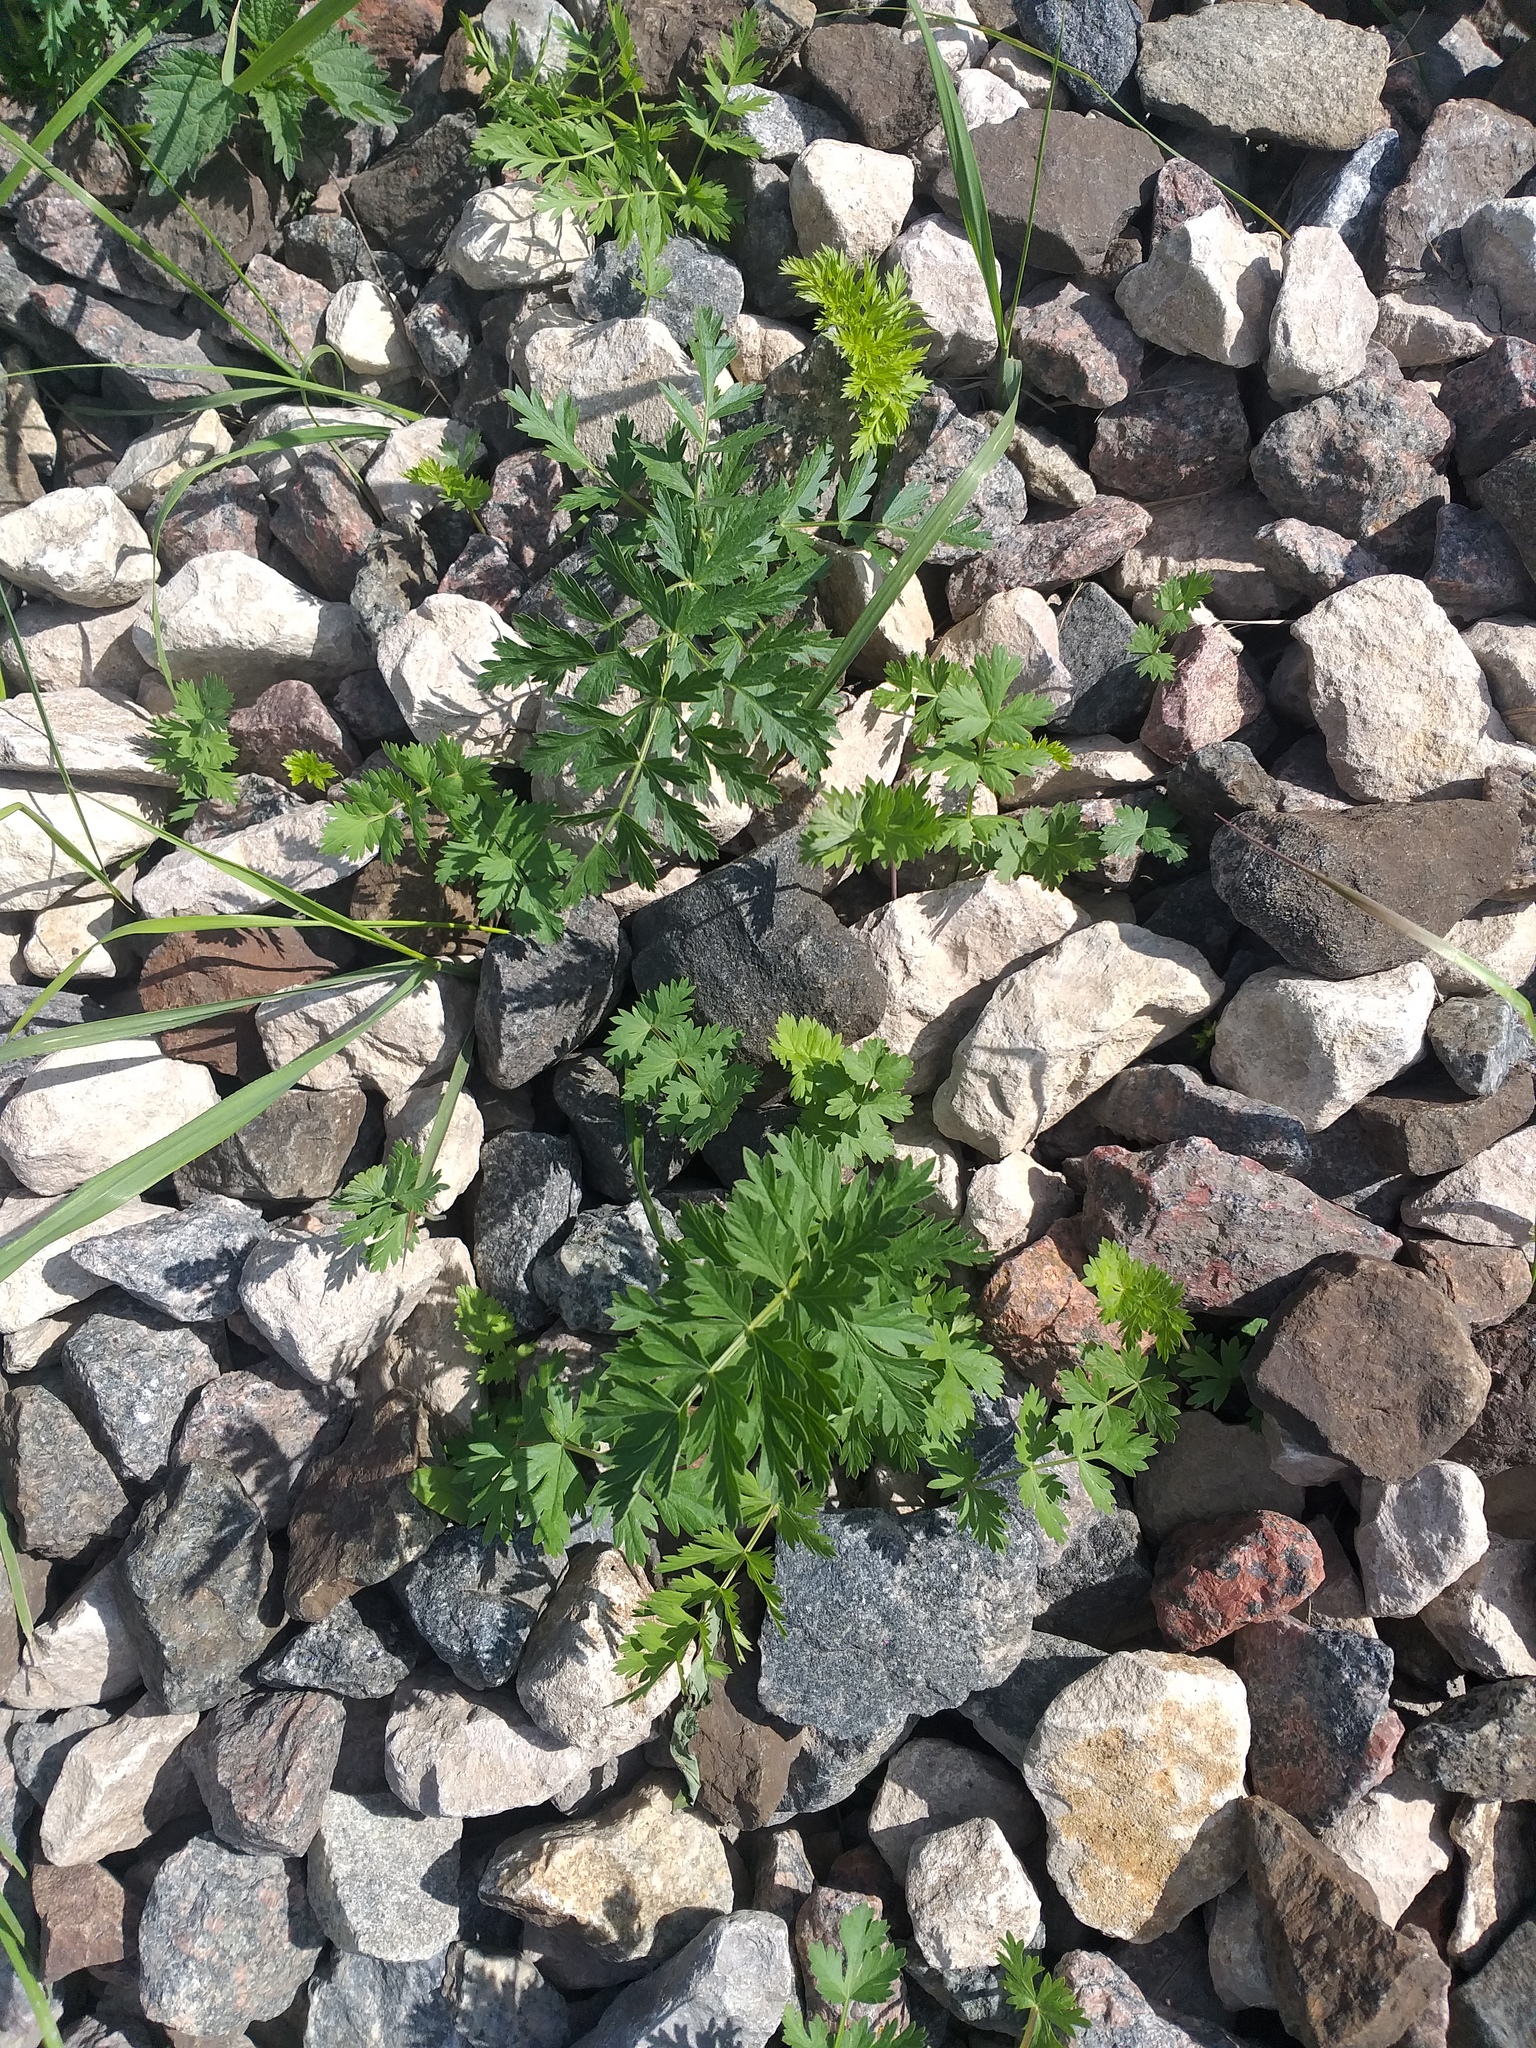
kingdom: Plantae
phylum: Tracheophyta
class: Magnoliopsida
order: Apiales
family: Apiaceae
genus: Seseli
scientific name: Seseli libanotis
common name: Mooncarrot
